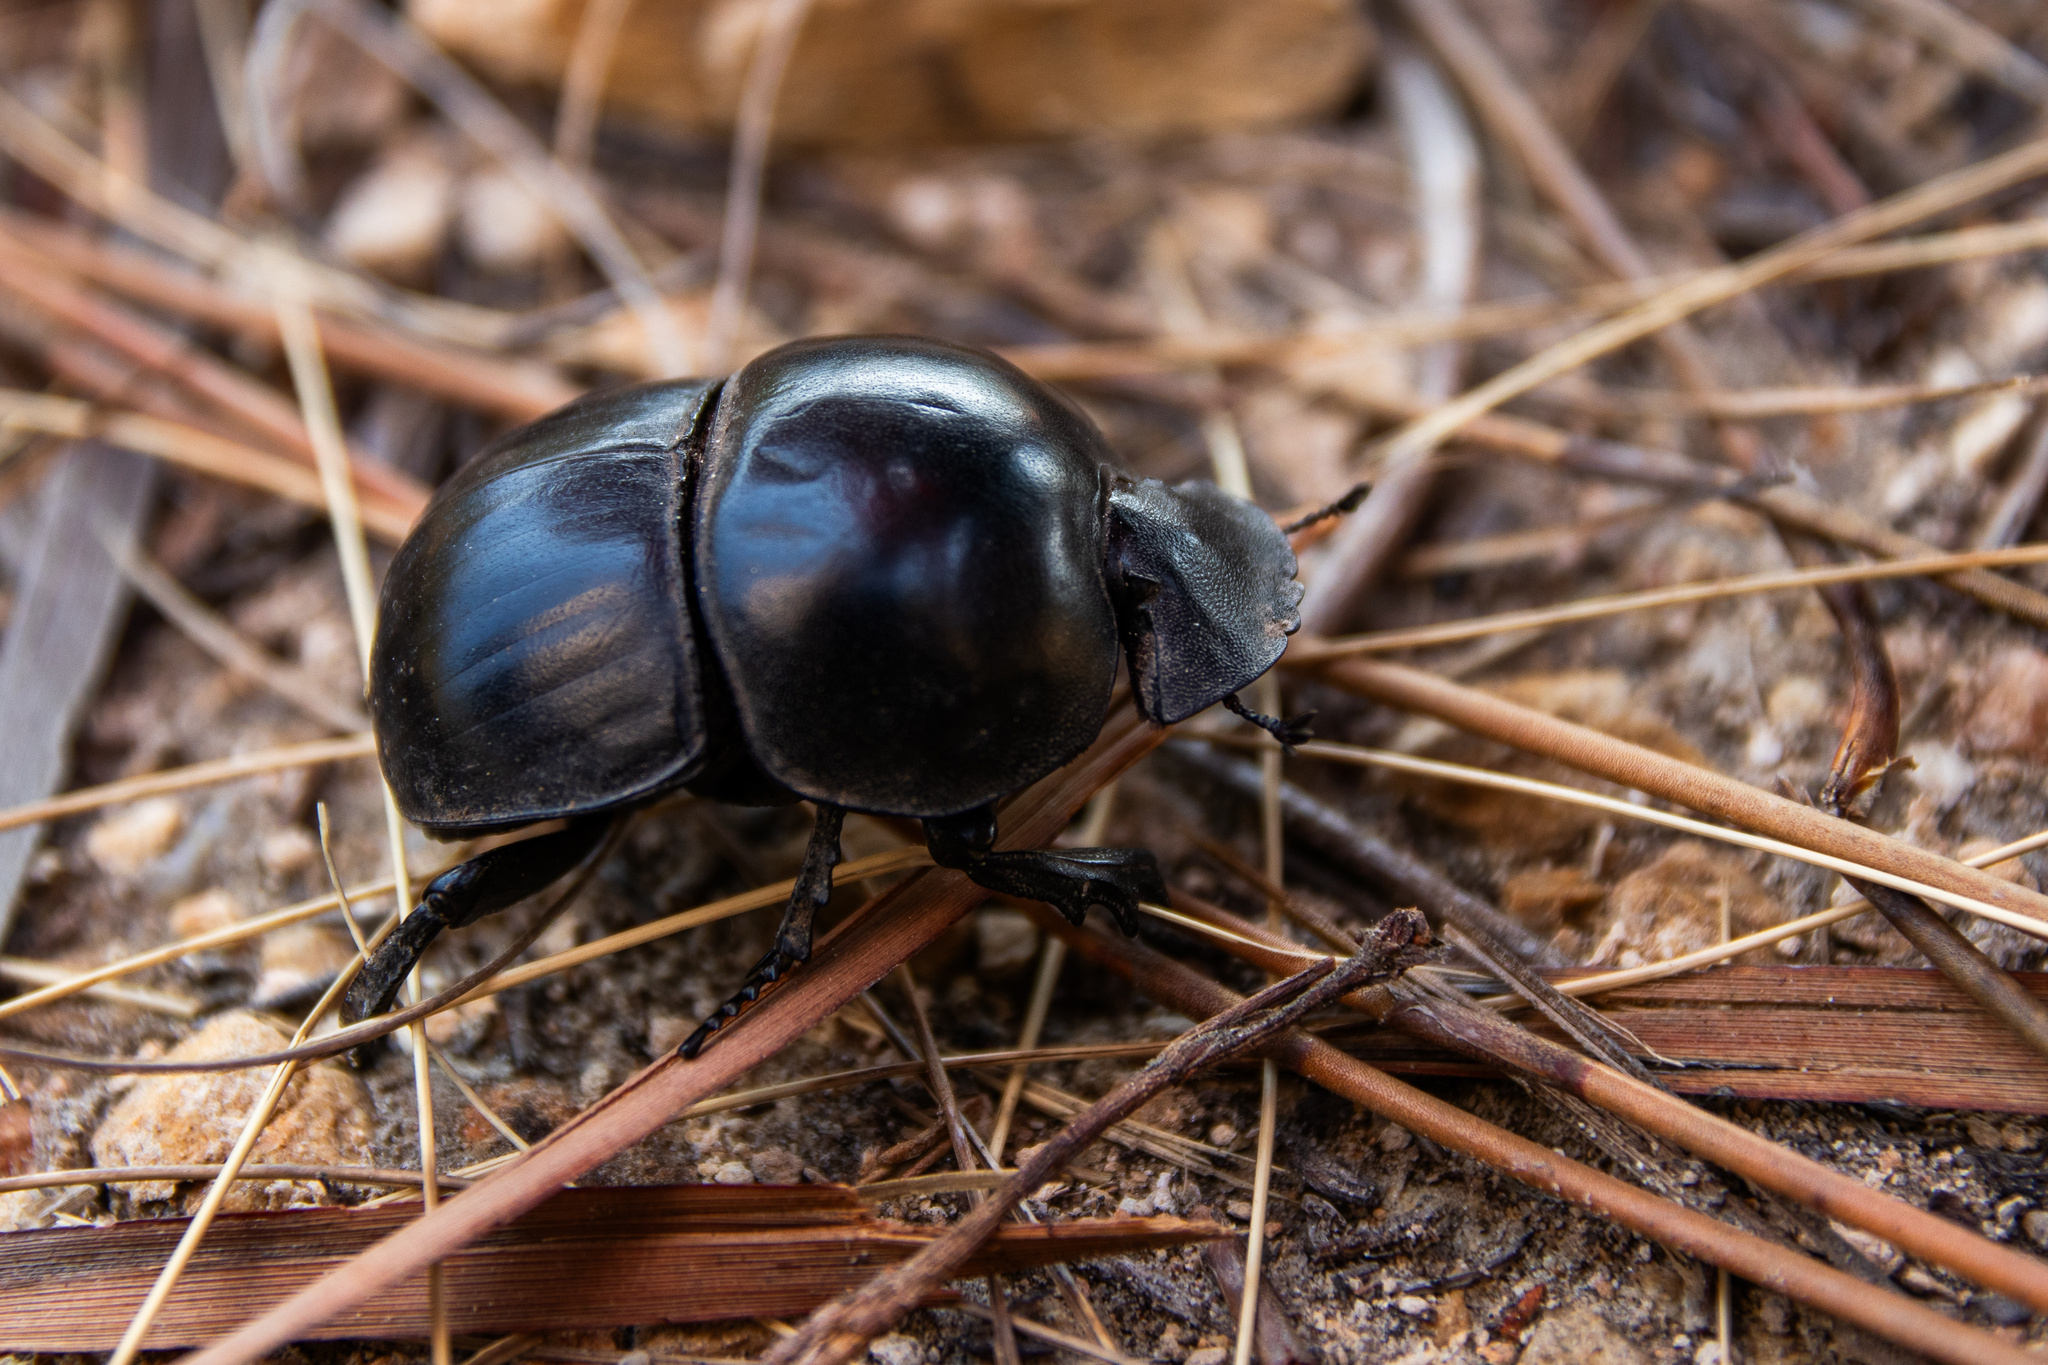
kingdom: Animalia
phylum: Arthropoda
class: Insecta
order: Coleoptera
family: Scarabaeidae
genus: Circellium
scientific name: Circellium bacchus
